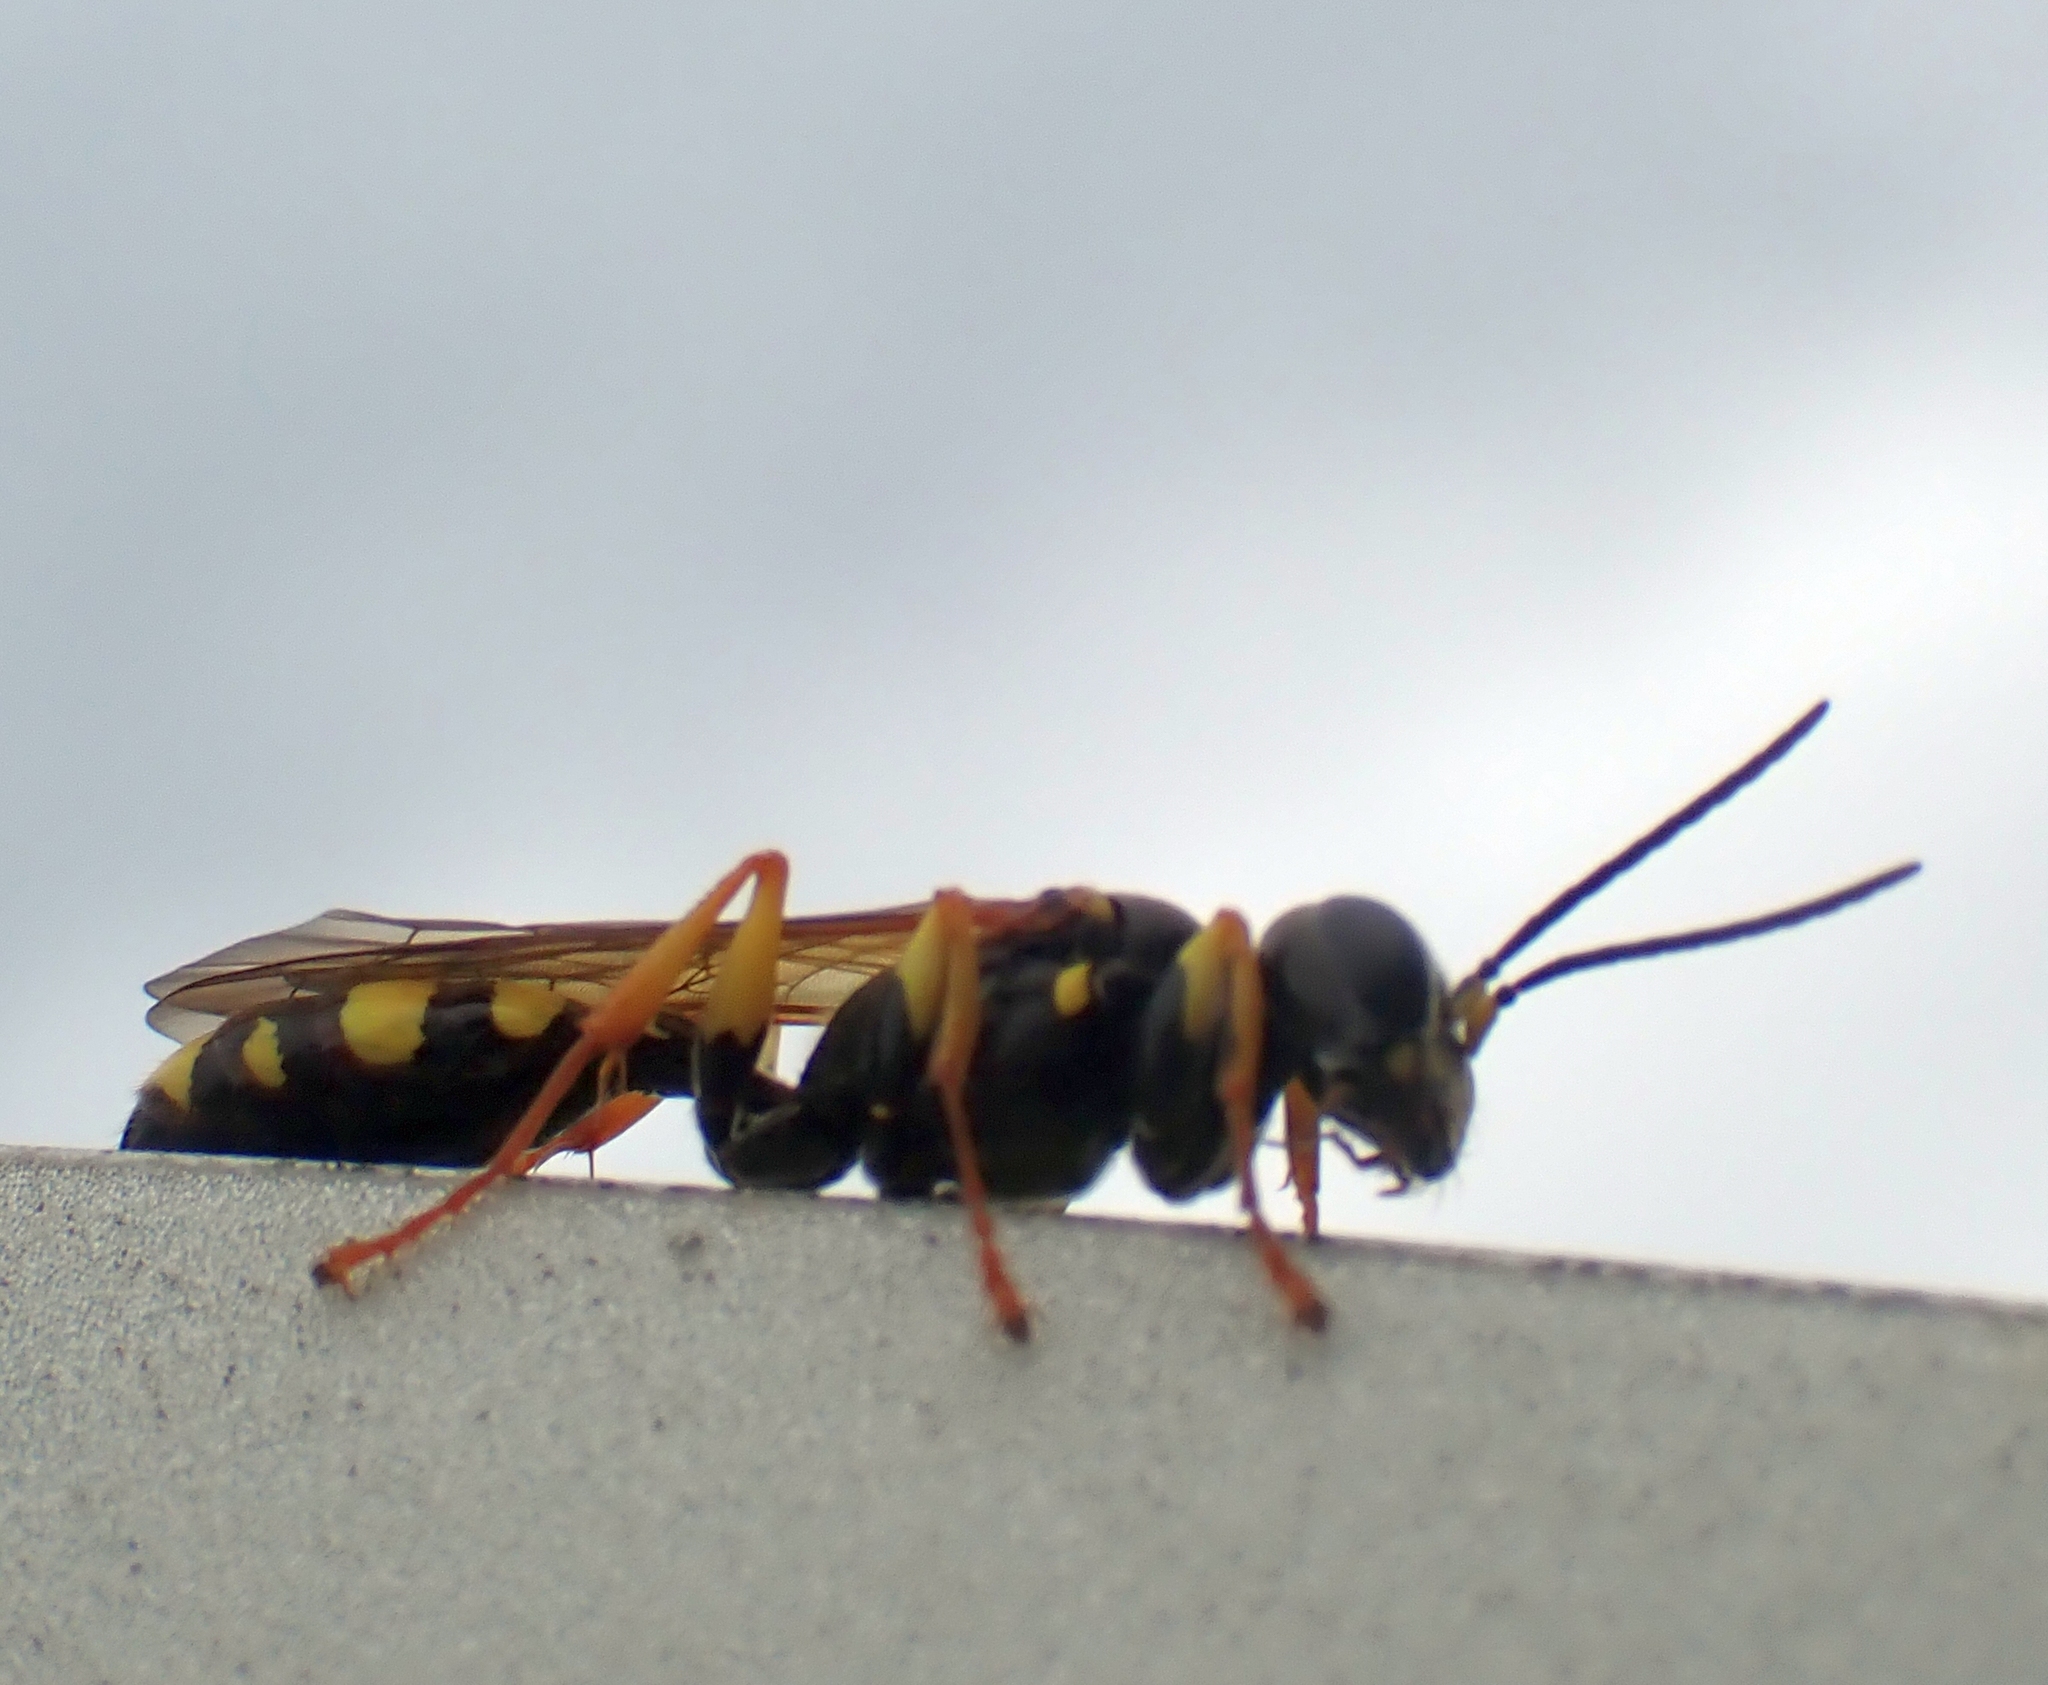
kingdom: Animalia
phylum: Arthropoda
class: Insecta
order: Hymenoptera
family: Crabronidae
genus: Mellinus
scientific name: Mellinus arvensis
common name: Field digger wasp
